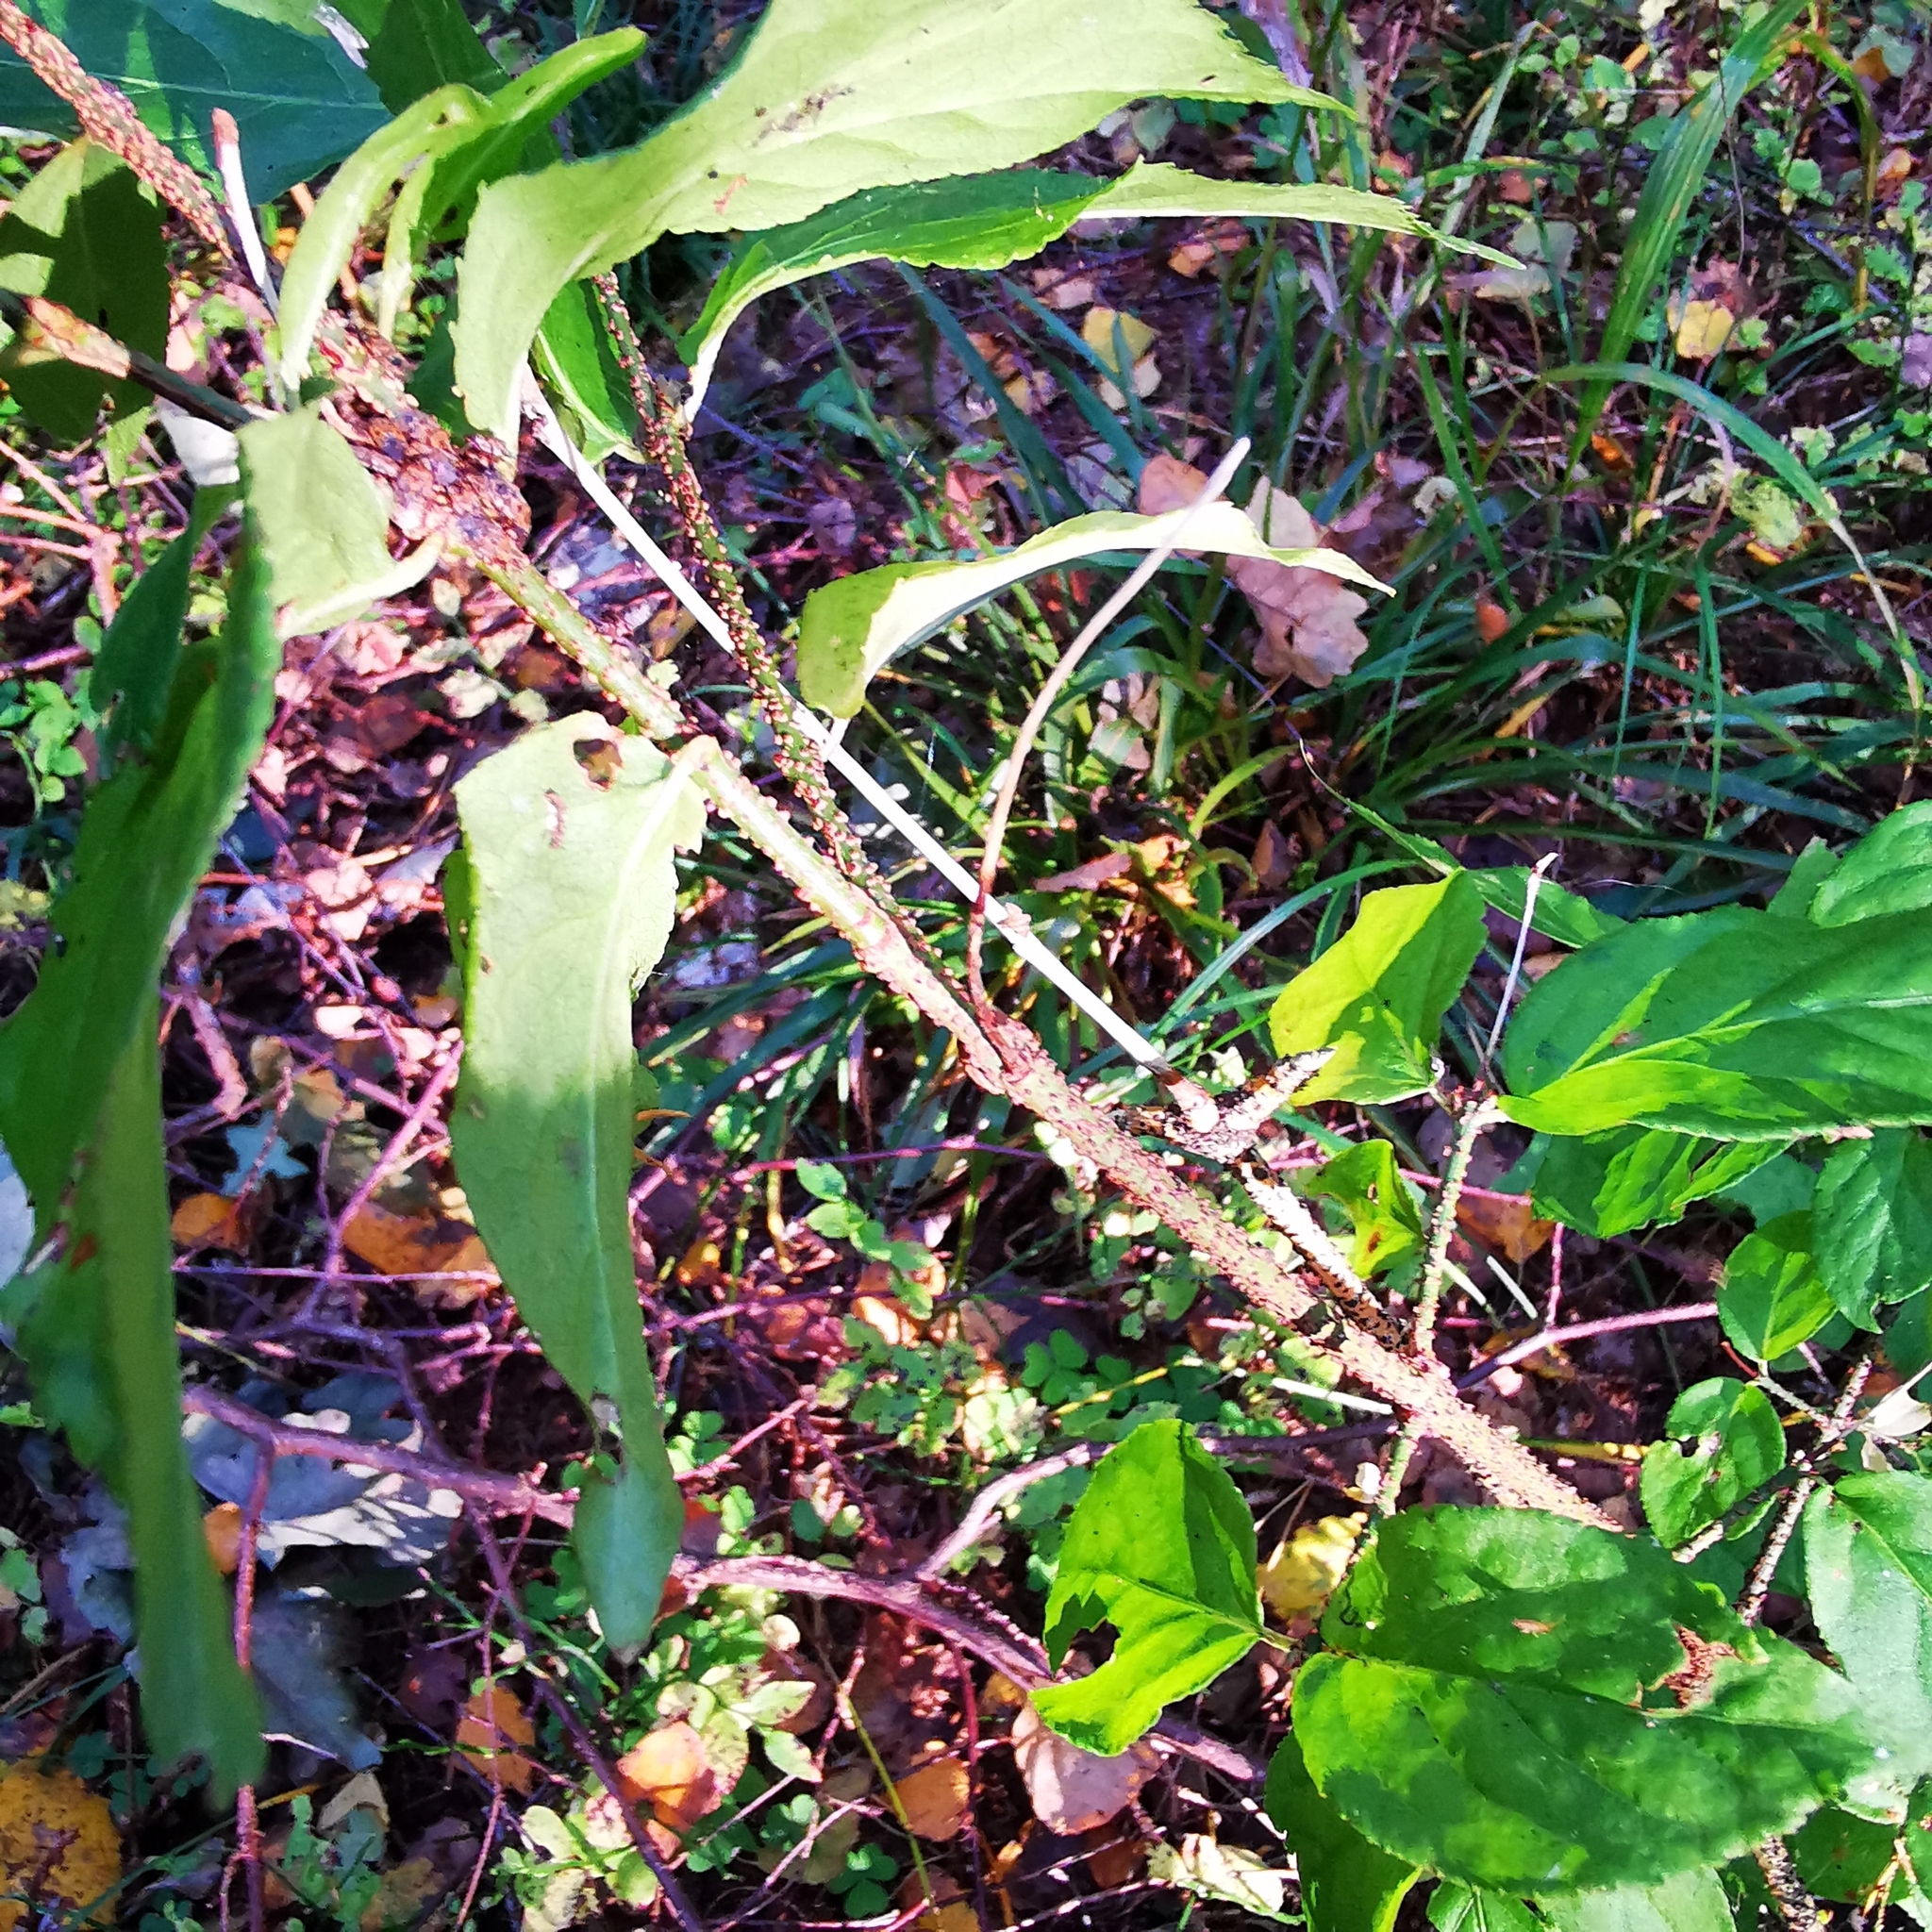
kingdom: Plantae
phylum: Tracheophyta
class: Magnoliopsida
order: Celastrales
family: Celastraceae
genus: Euonymus
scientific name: Euonymus verrucosus
